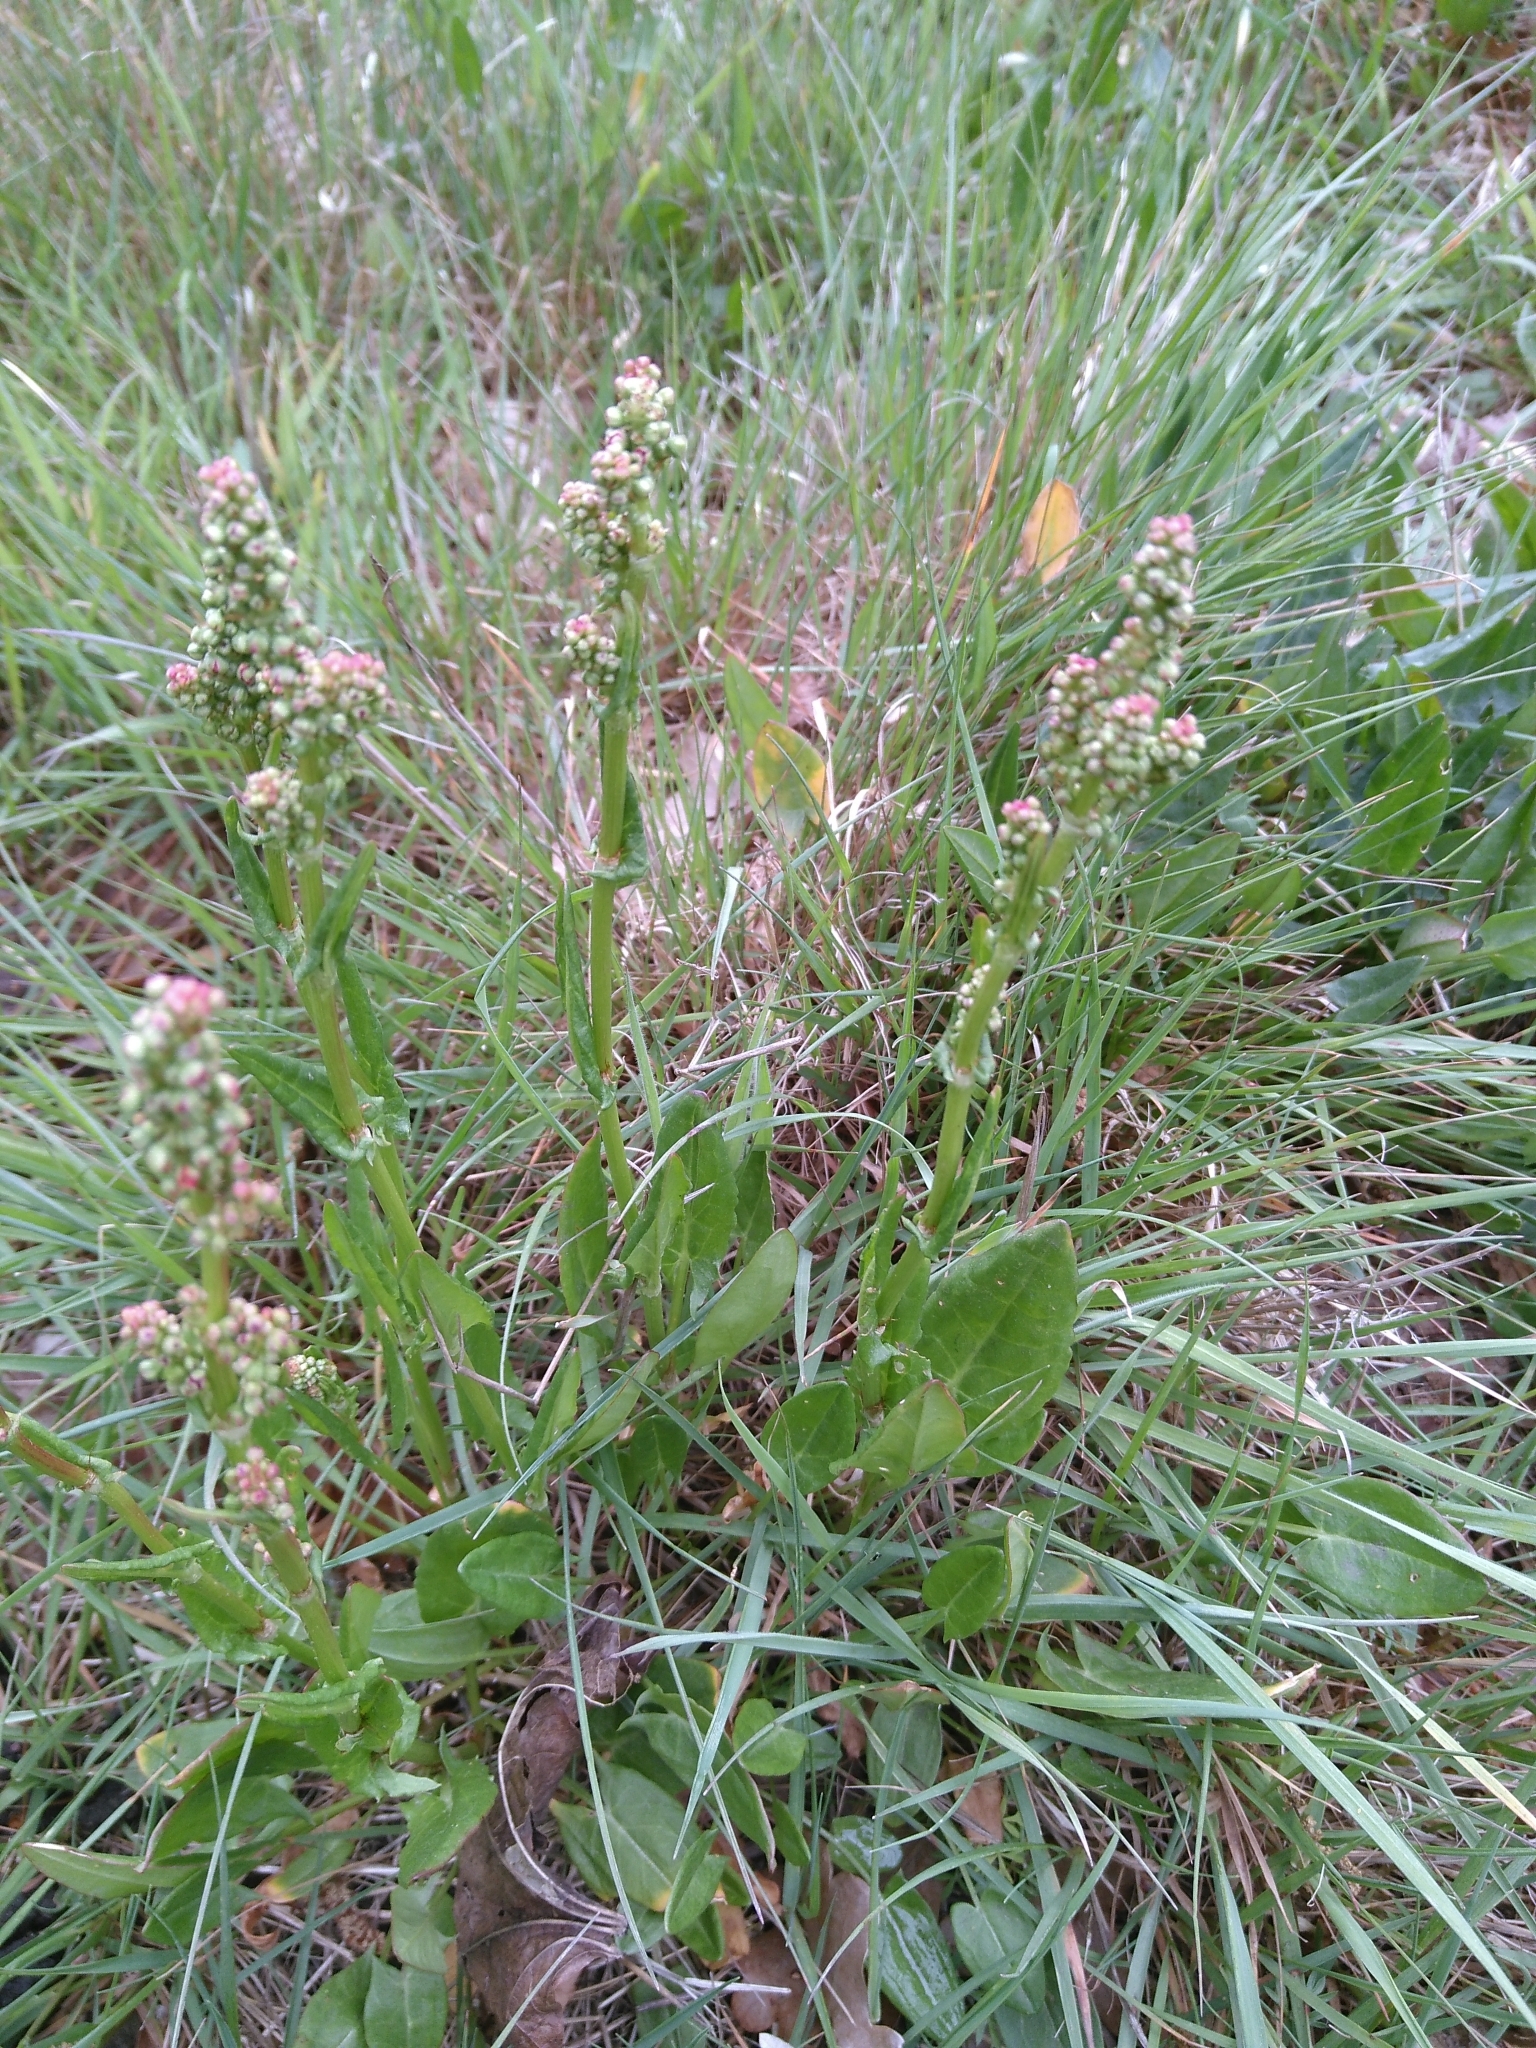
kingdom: Plantae
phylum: Tracheophyta
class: Magnoliopsida
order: Caryophyllales
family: Polygonaceae
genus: Rumex
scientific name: Rumex acetosa
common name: Garden sorrel
